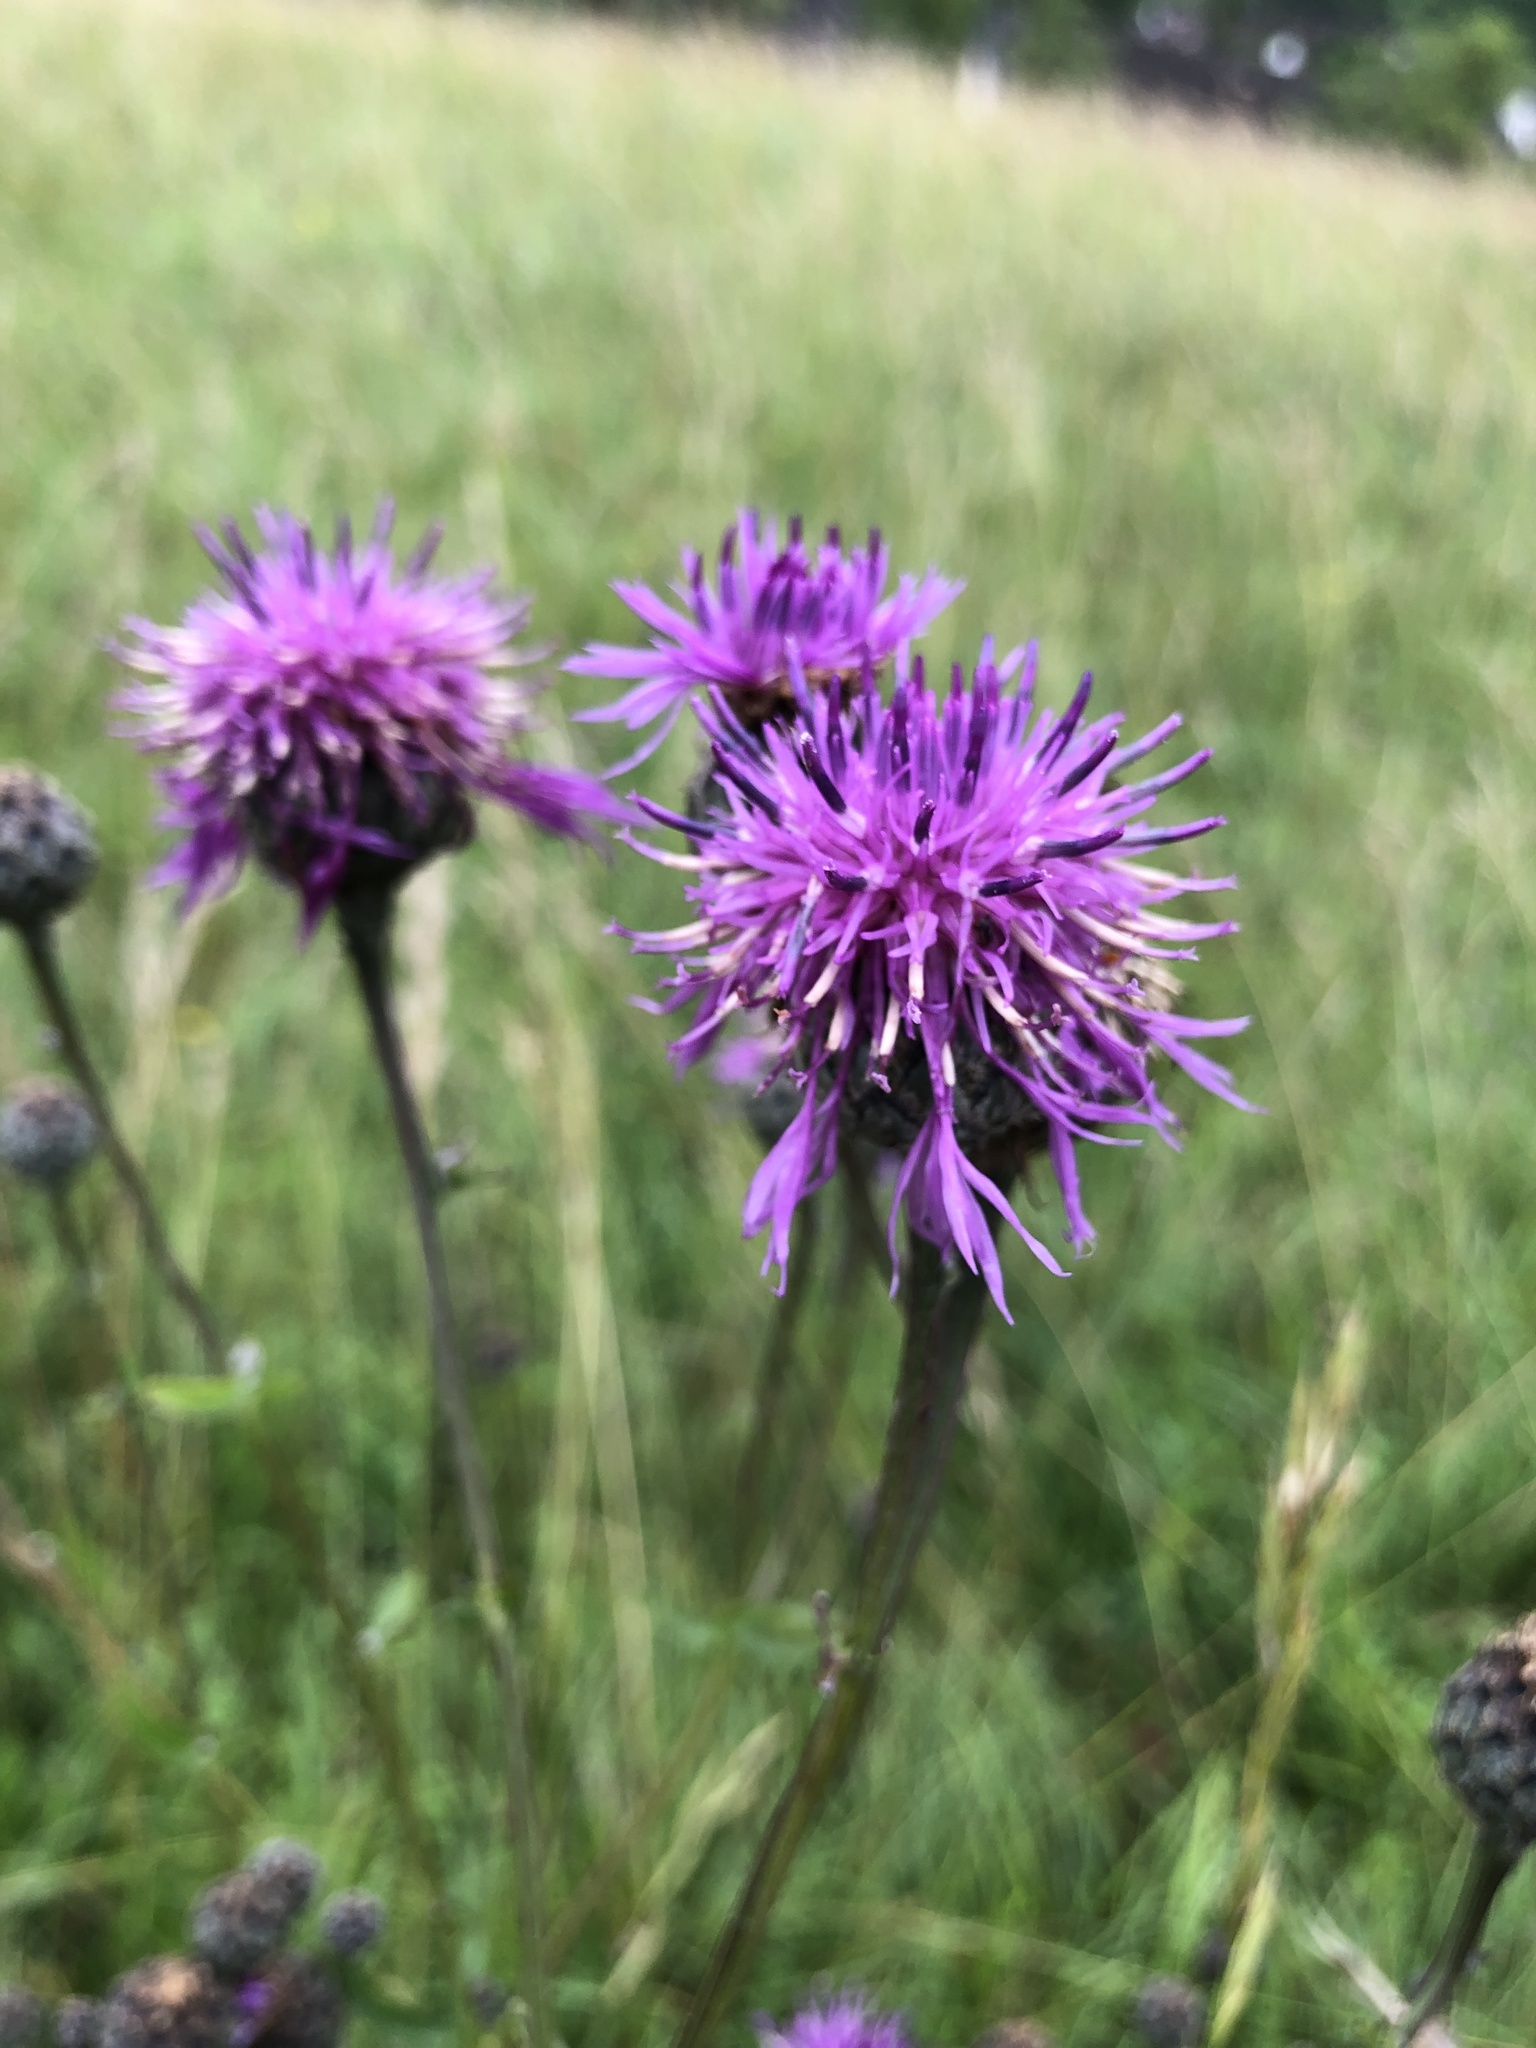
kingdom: Plantae
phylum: Tracheophyta
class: Magnoliopsida
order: Asterales
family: Asteraceae
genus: Centaurea
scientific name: Centaurea scabiosa
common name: Greater knapweed
